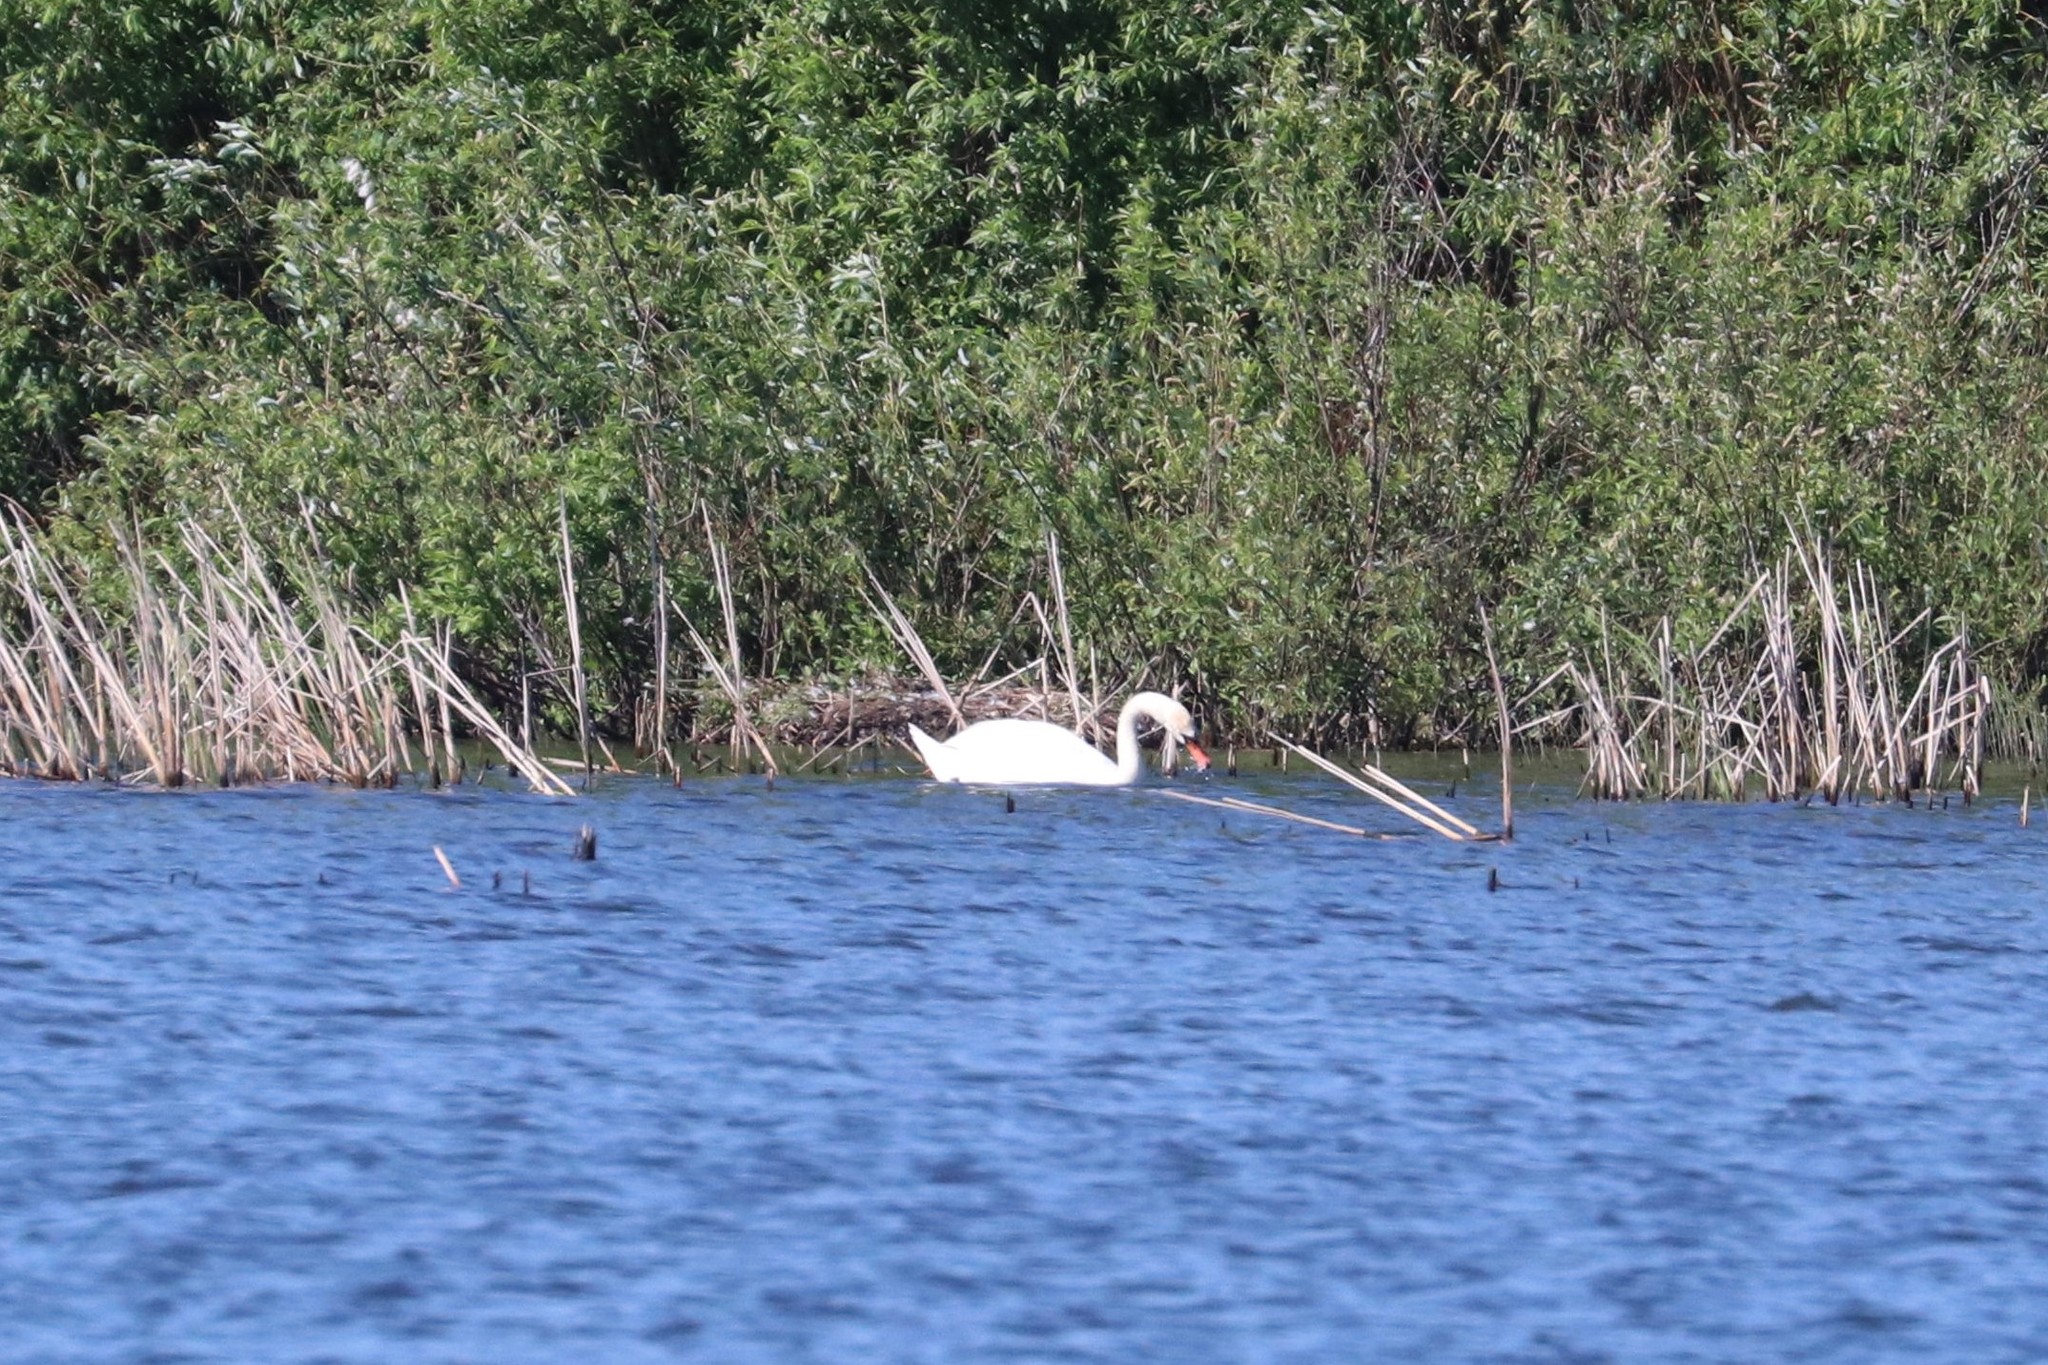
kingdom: Animalia
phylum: Chordata
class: Aves
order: Anseriformes
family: Anatidae
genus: Cygnus
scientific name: Cygnus olor
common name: Mute swan
